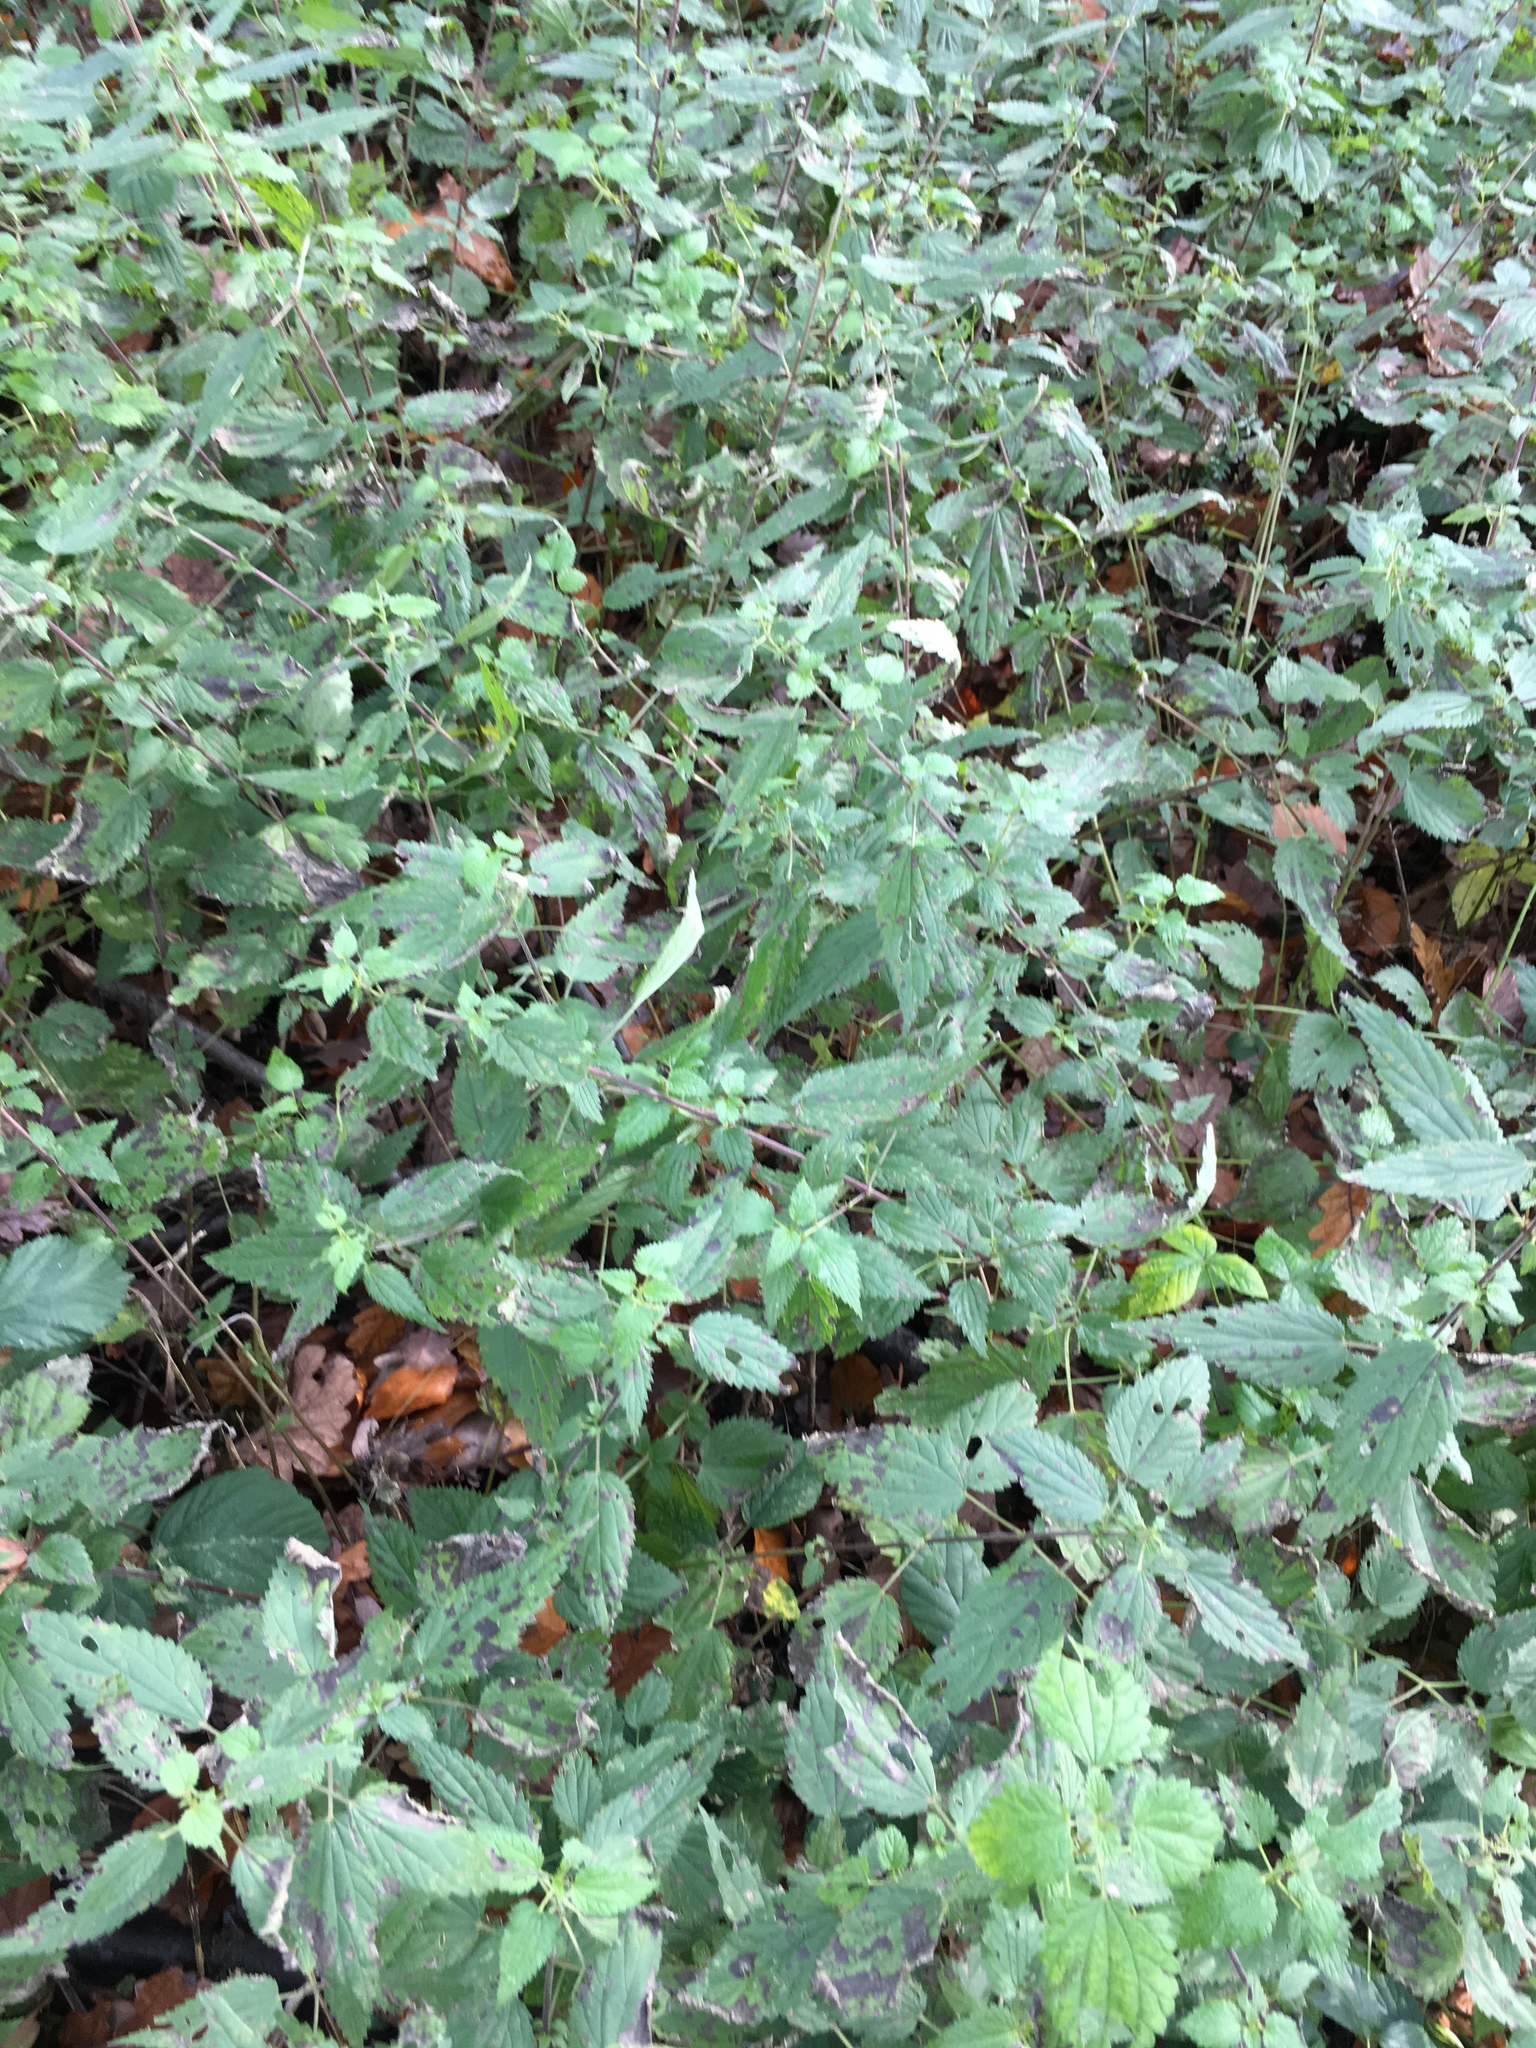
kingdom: Plantae
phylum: Tracheophyta
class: Magnoliopsida
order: Rosales
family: Urticaceae
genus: Urtica
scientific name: Urtica dioica
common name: Common nettle
